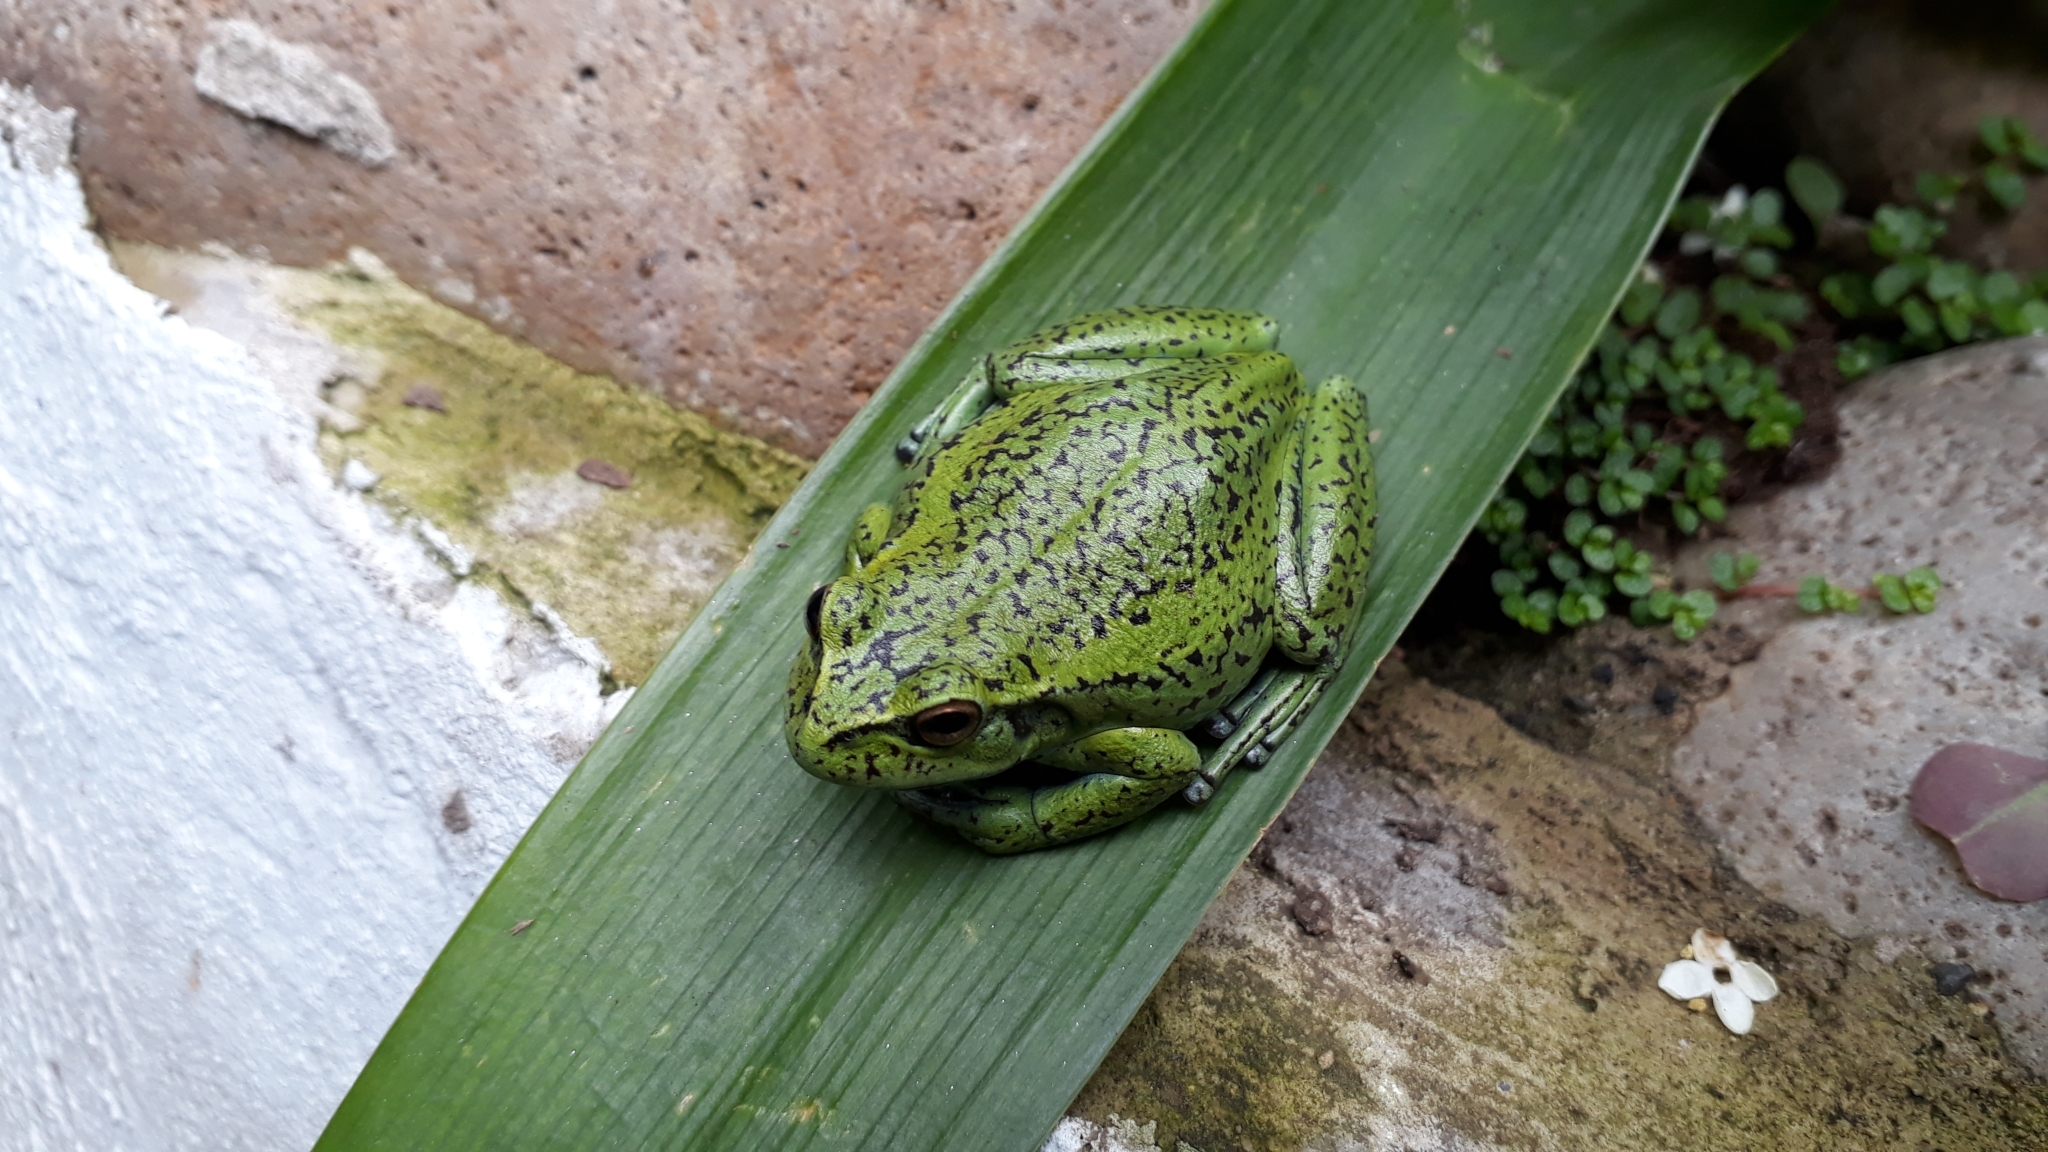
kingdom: Animalia
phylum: Chordata
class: Amphibia
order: Anura
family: Hylidae
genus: Dendropsophus
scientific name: Dendropsophus molitor
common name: Green dotted treefrog
